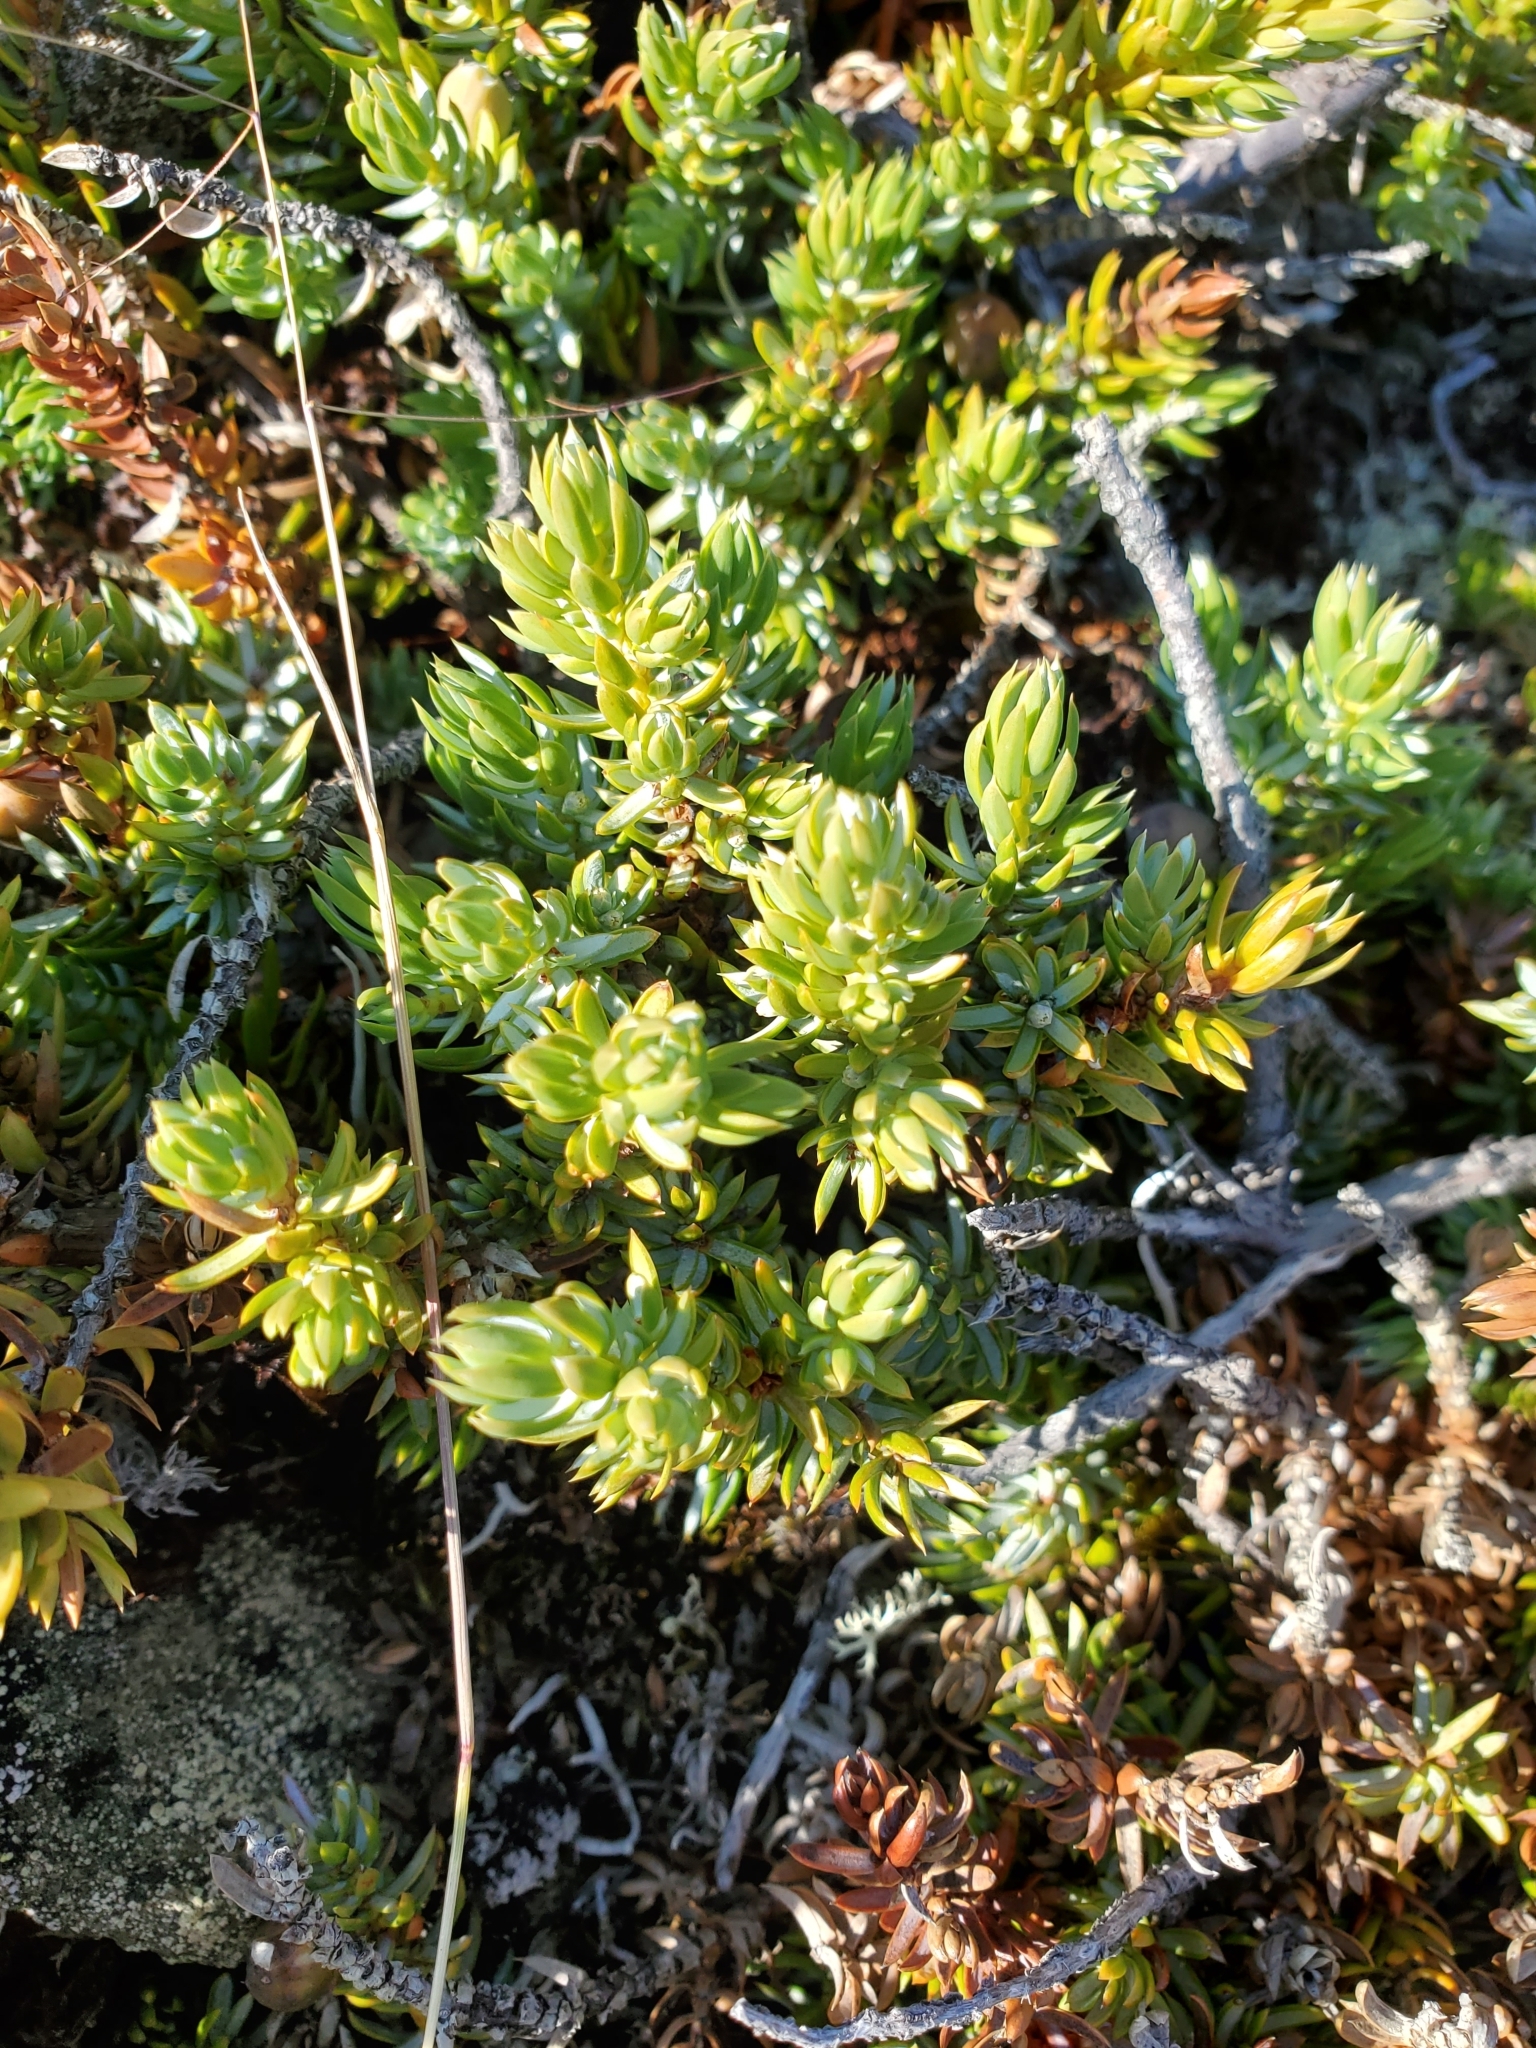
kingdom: Plantae
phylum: Tracheophyta
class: Pinopsida
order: Pinales
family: Cupressaceae
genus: Juniperus
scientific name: Juniperus communis
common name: Common juniper
